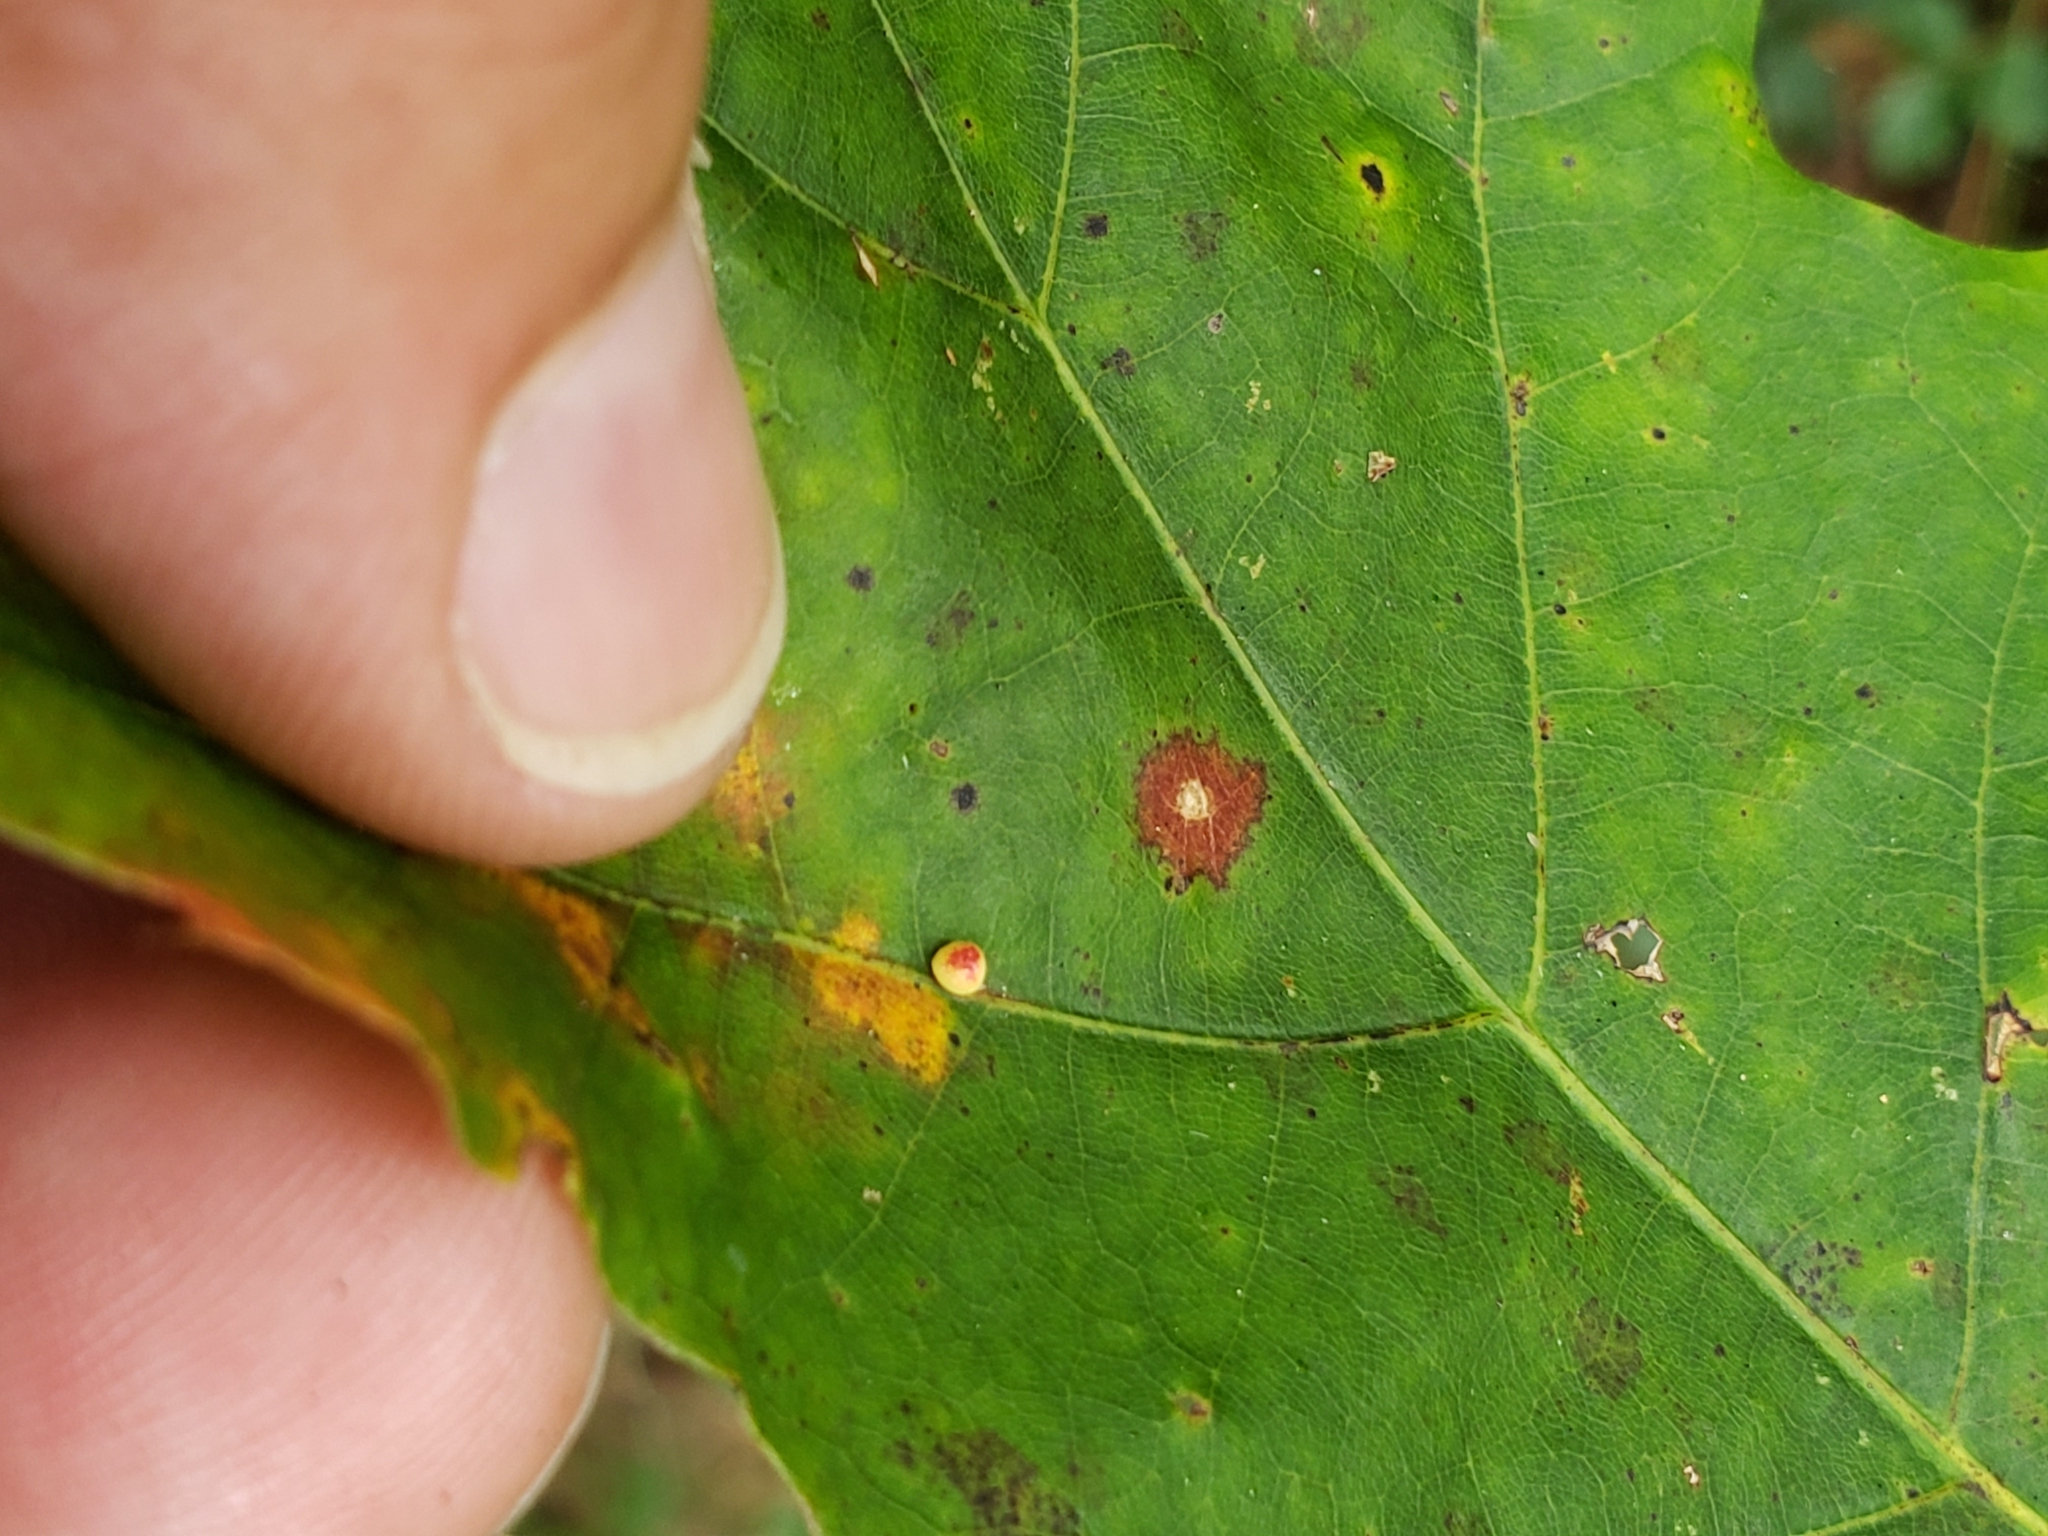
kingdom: Animalia
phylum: Arthropoda
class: Insecta
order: Hymenoptera
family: Cynipidae
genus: Zopheroteras
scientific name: Zopheroteras
